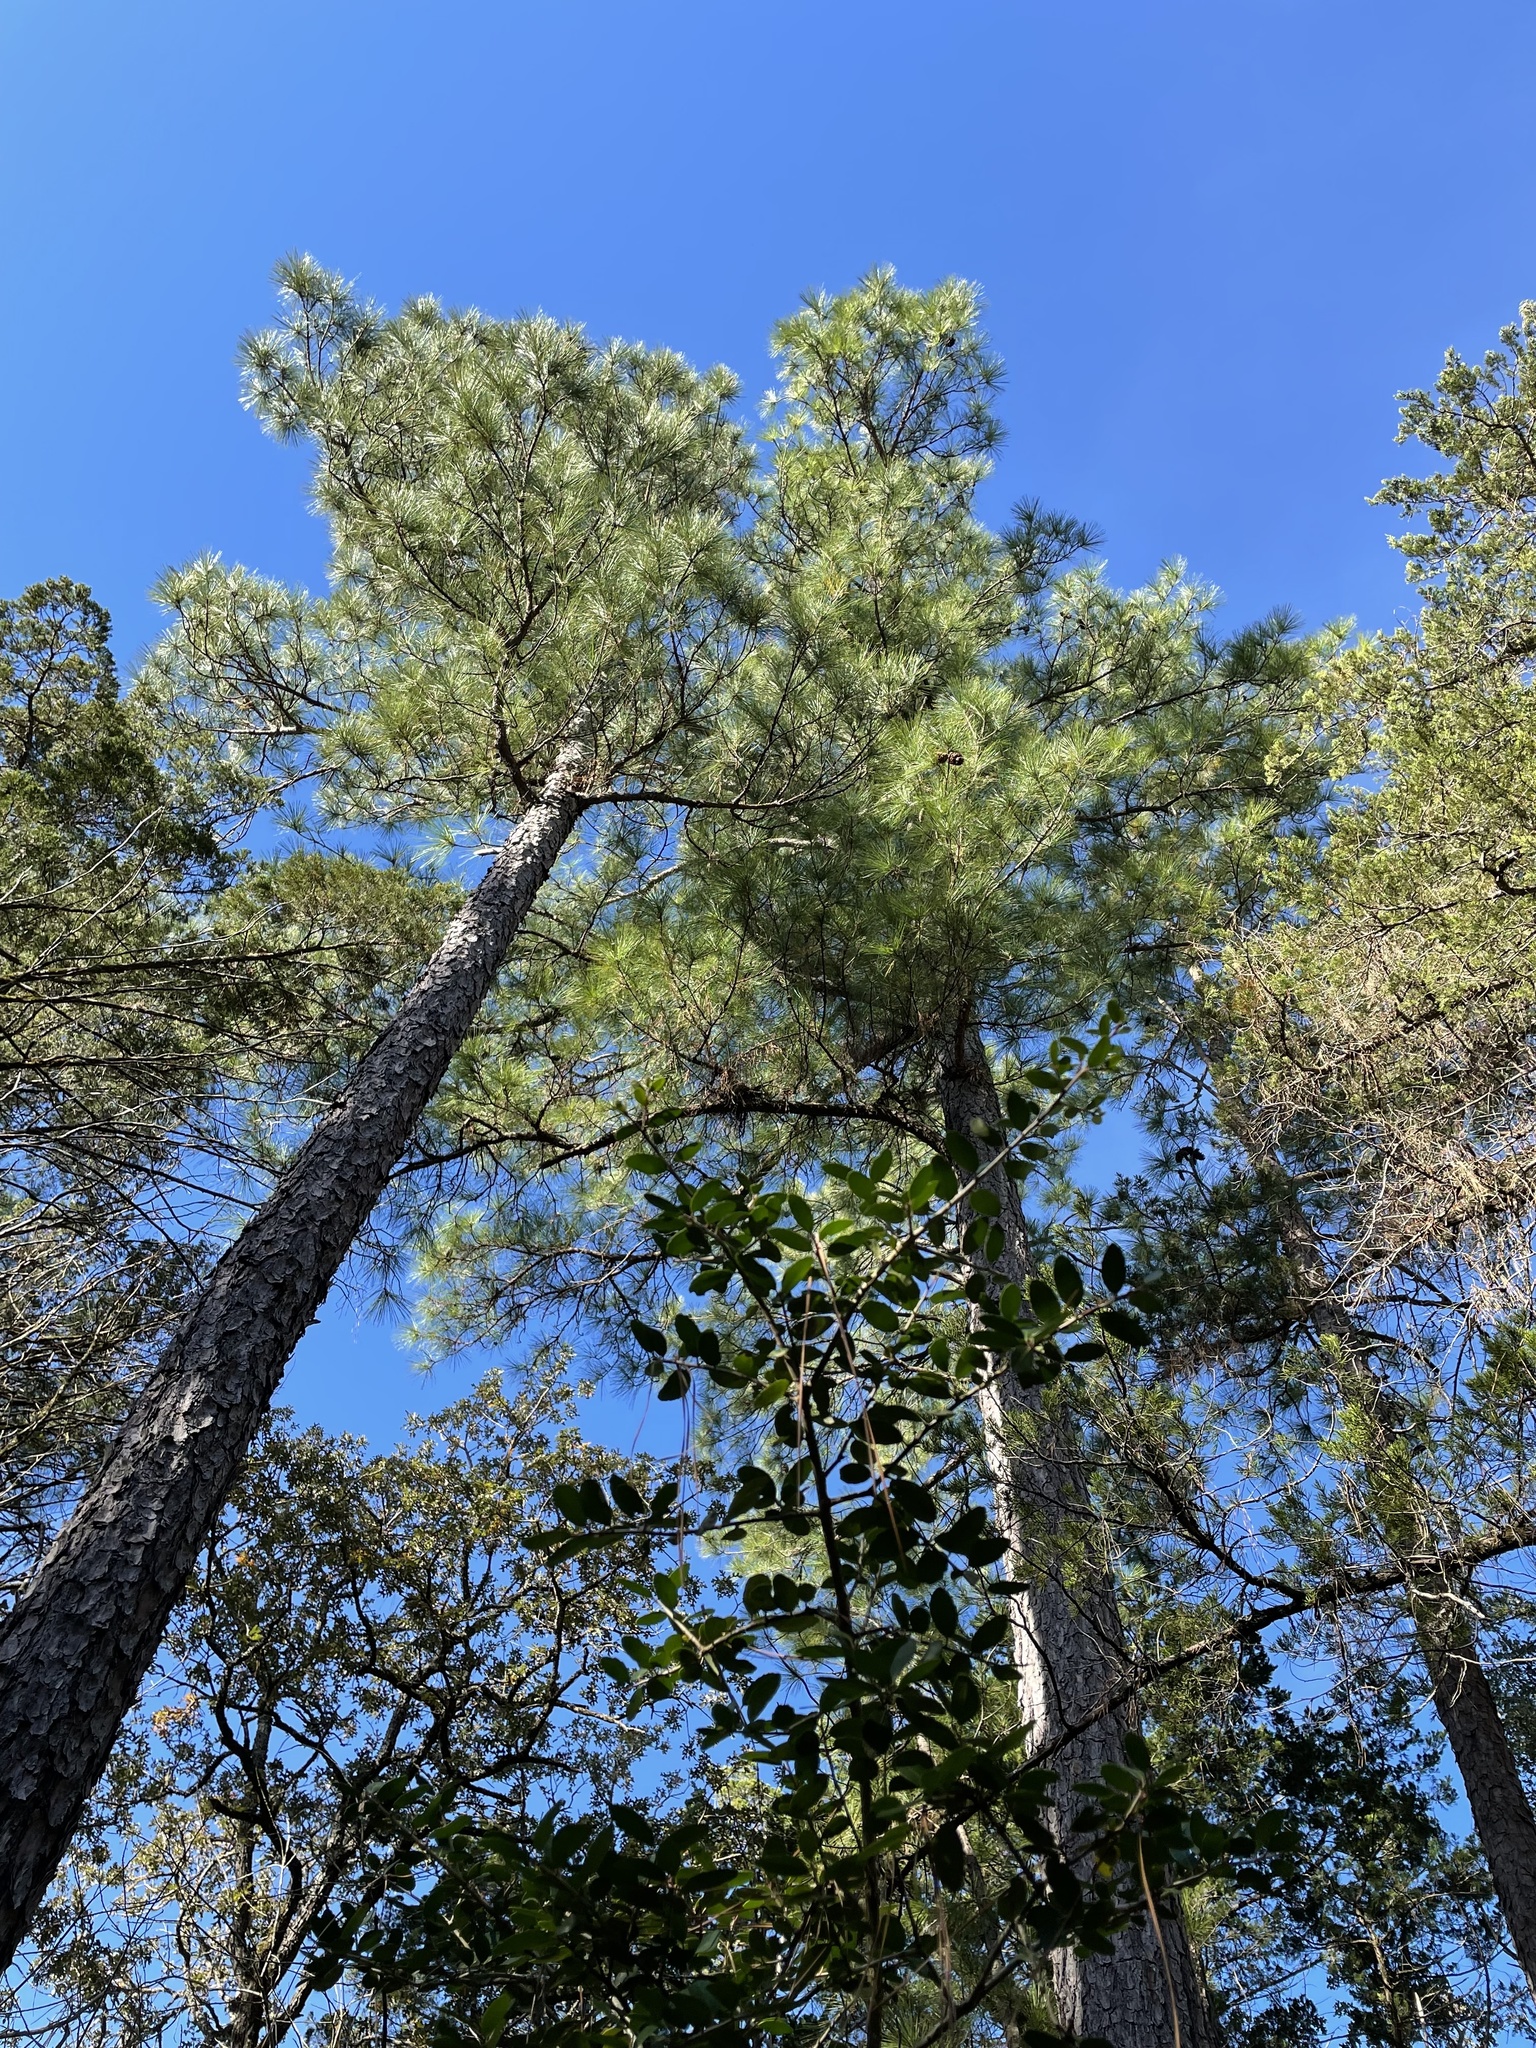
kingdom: Plantae
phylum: Tracheophyta
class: Pinopsida
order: Pinales
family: Pinaceae
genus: Pinus
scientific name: Pinus taeda
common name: Loblolly pine
